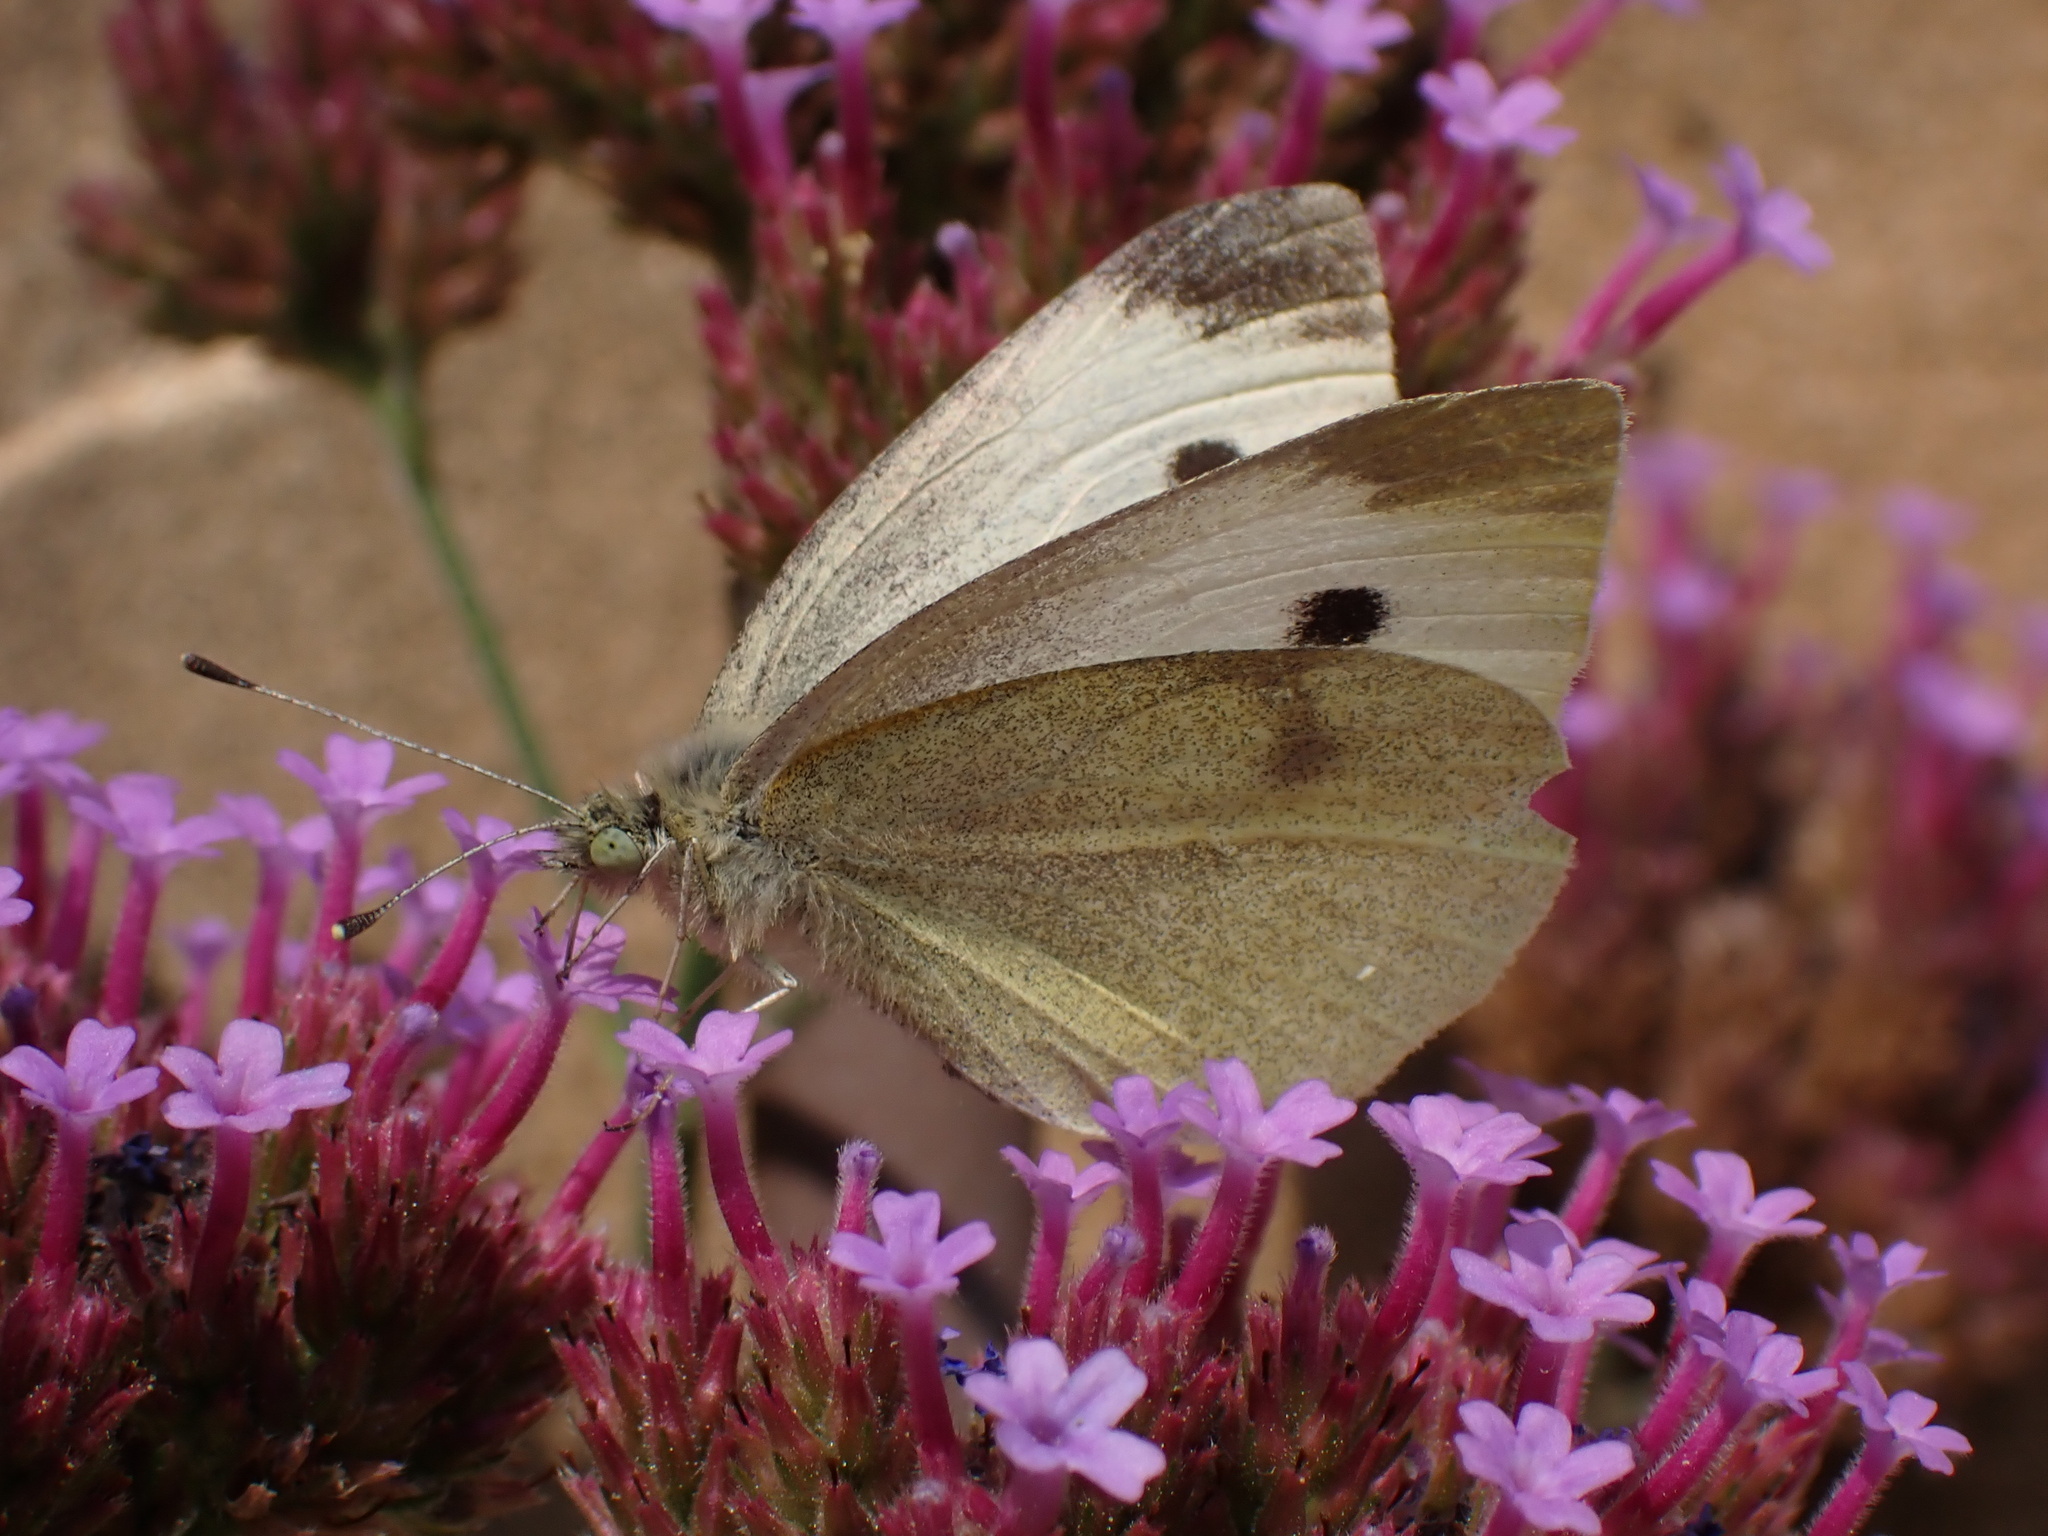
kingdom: Animalia
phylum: Arthropoda
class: Insecta
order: Lepidoptera
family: Pieridae
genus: Pieris
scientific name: Pieris rapae
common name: Small white
